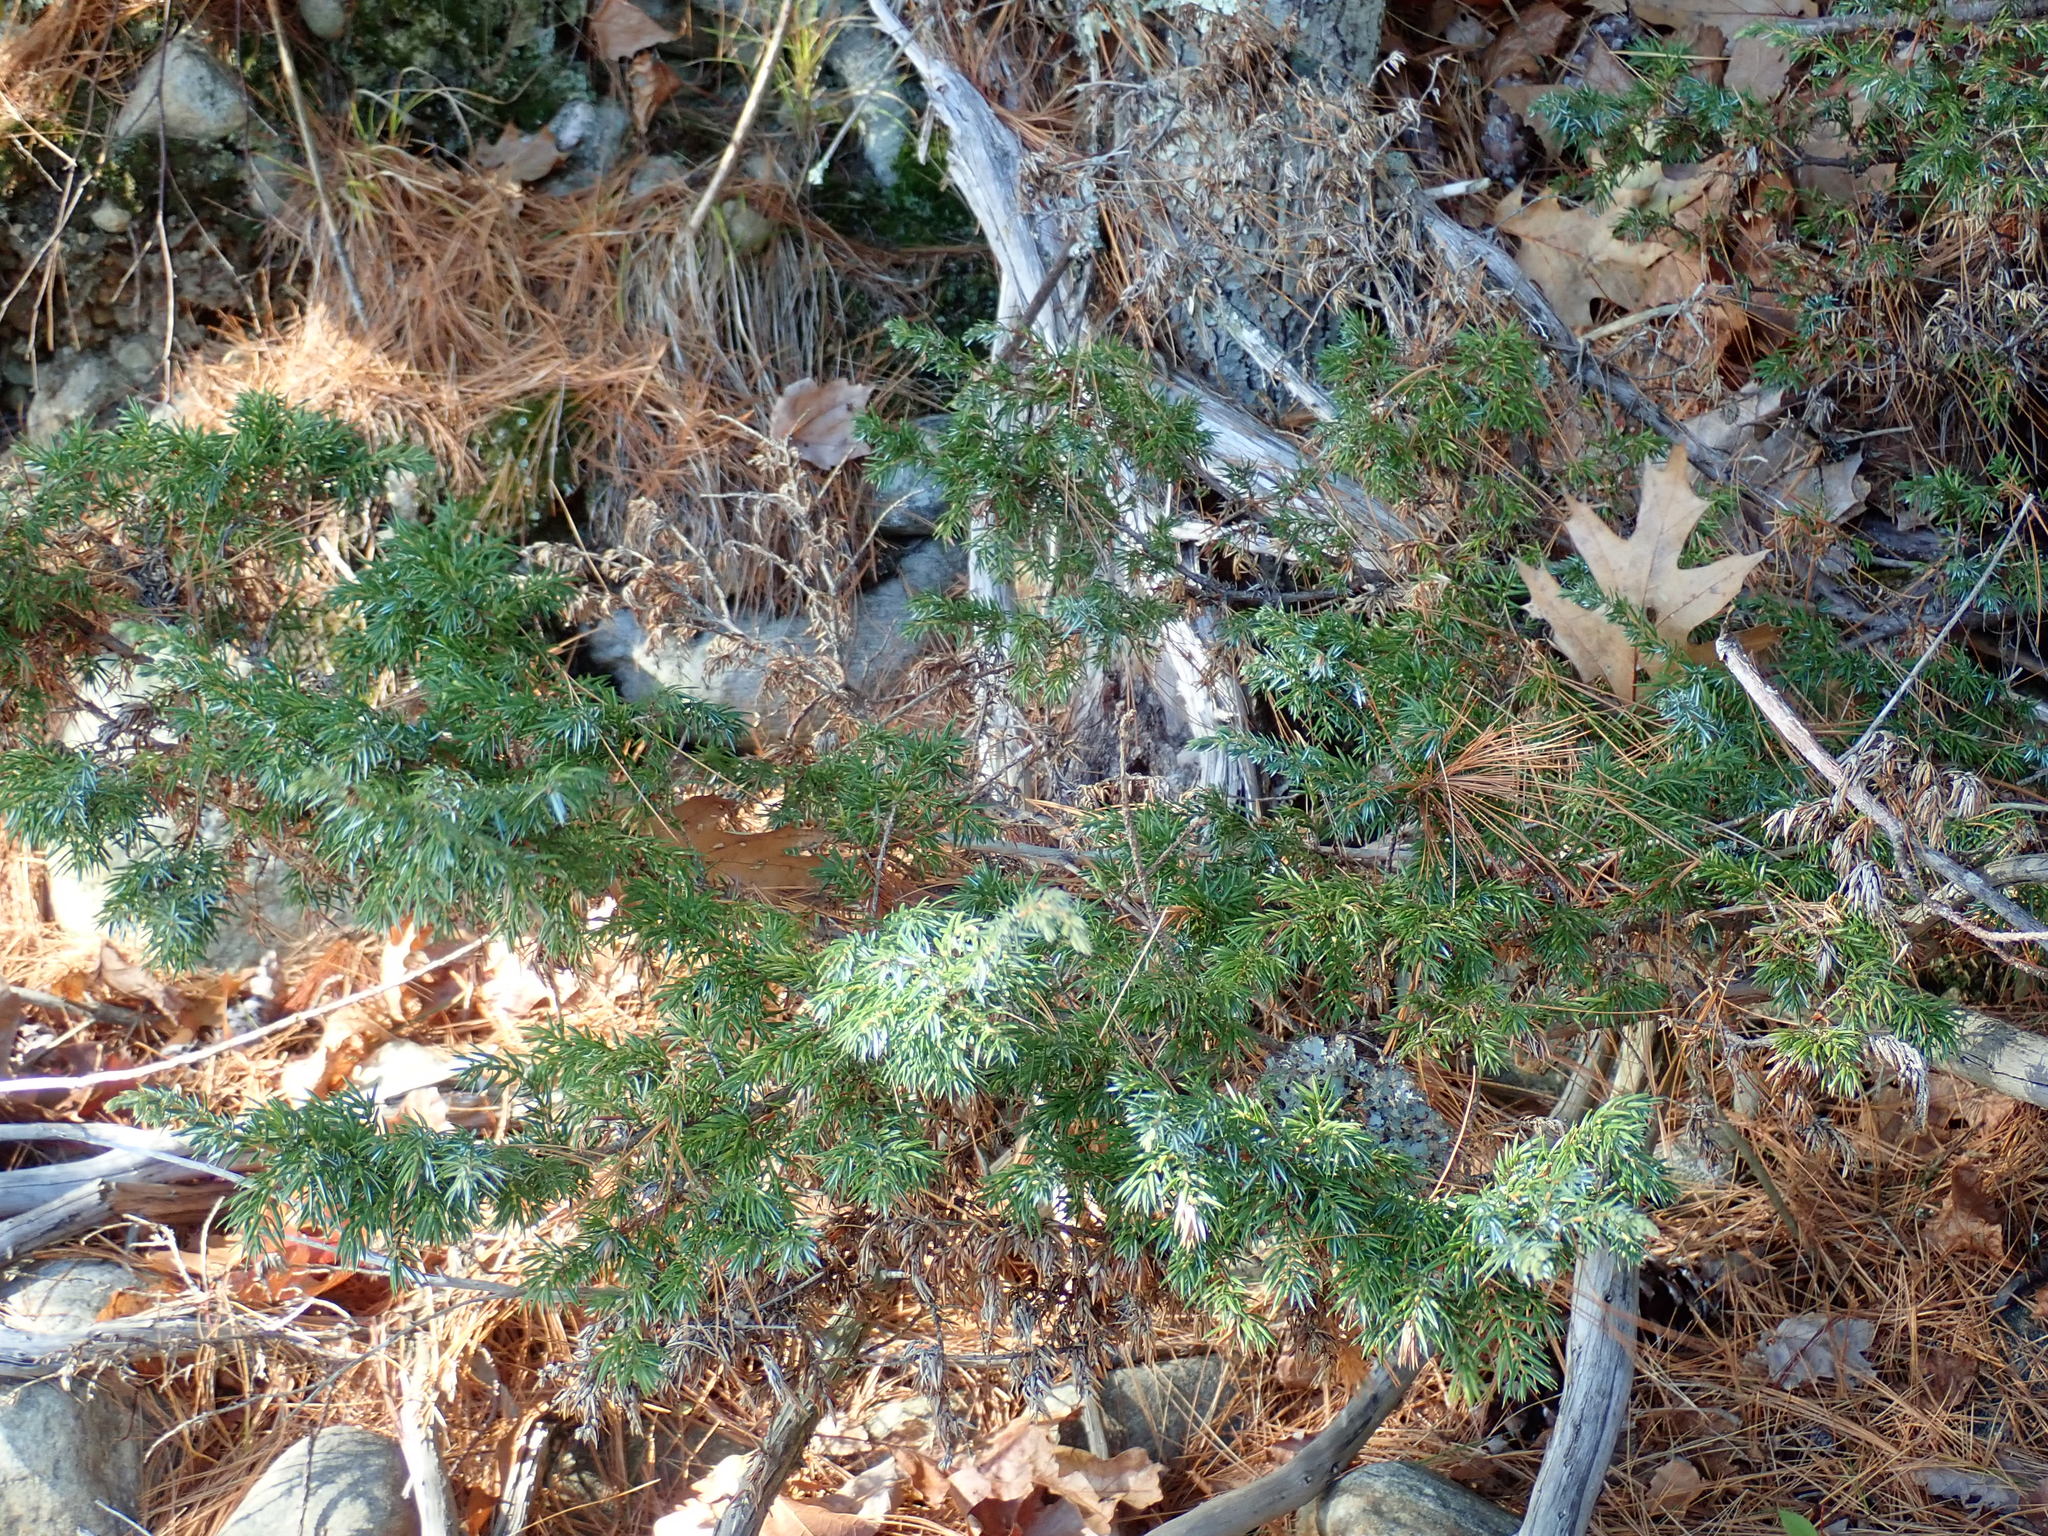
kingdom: Plantae
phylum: Tracheophyta
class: Pinopsida
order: Pinales
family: Cupressaceae
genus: Juniperus
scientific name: Juniperus communis
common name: Common juniper
